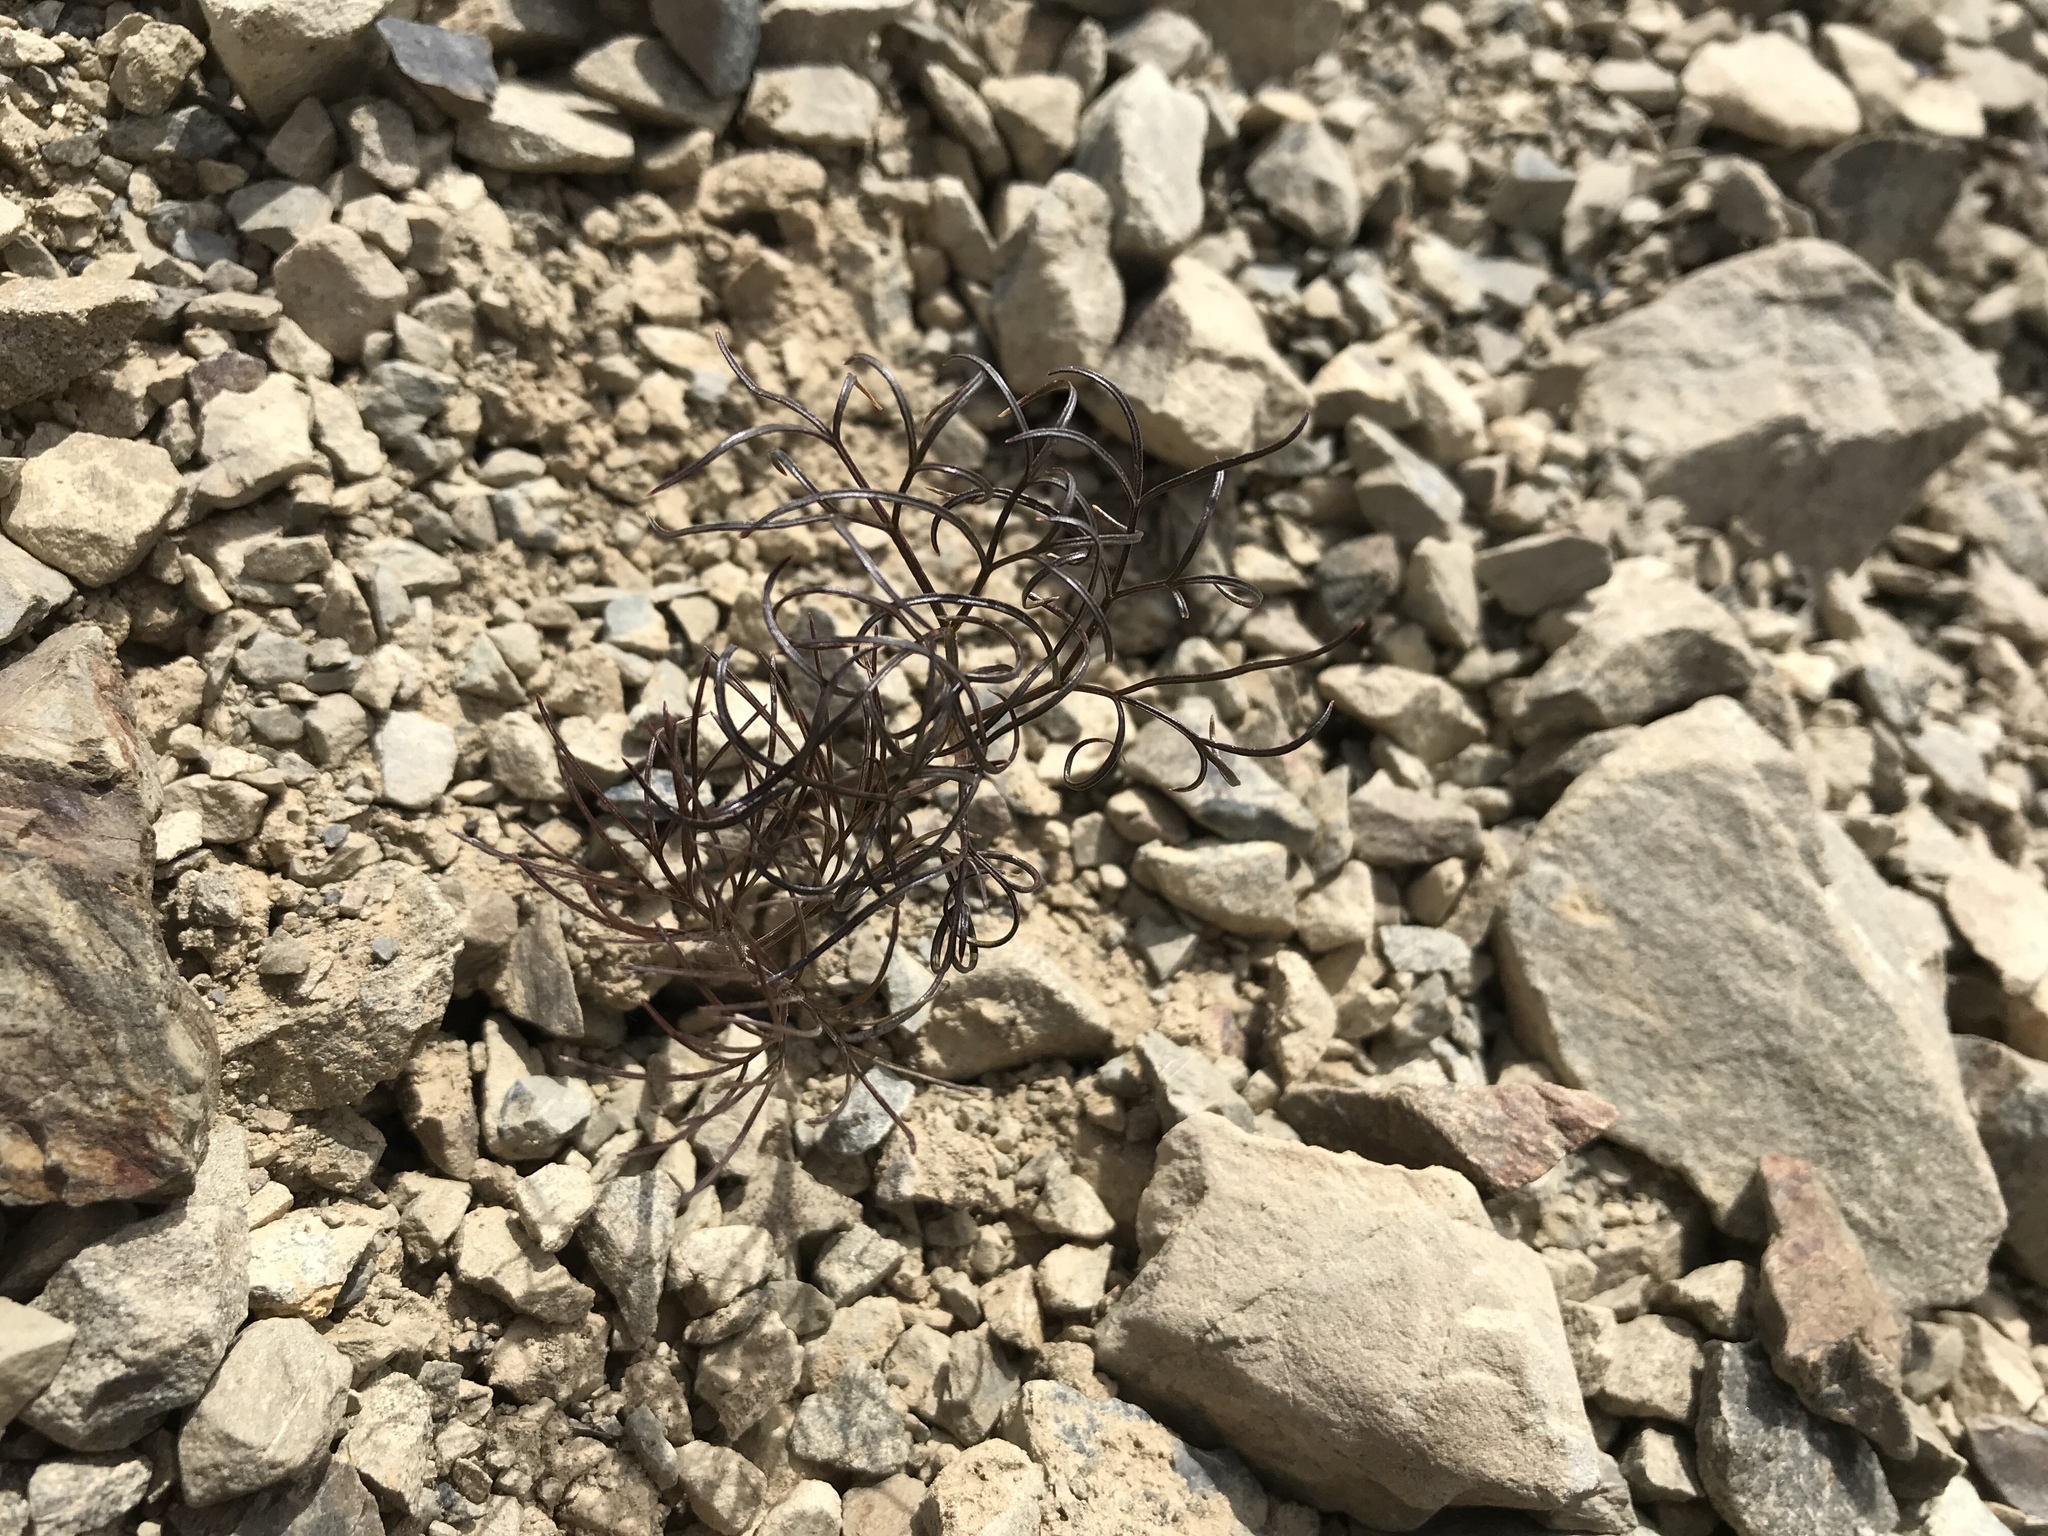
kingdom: Plantae
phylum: Tracheophyta
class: Magnoliopsida
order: Apiales
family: Apiaceae
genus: Anisotome
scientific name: Anisotome filifolia
